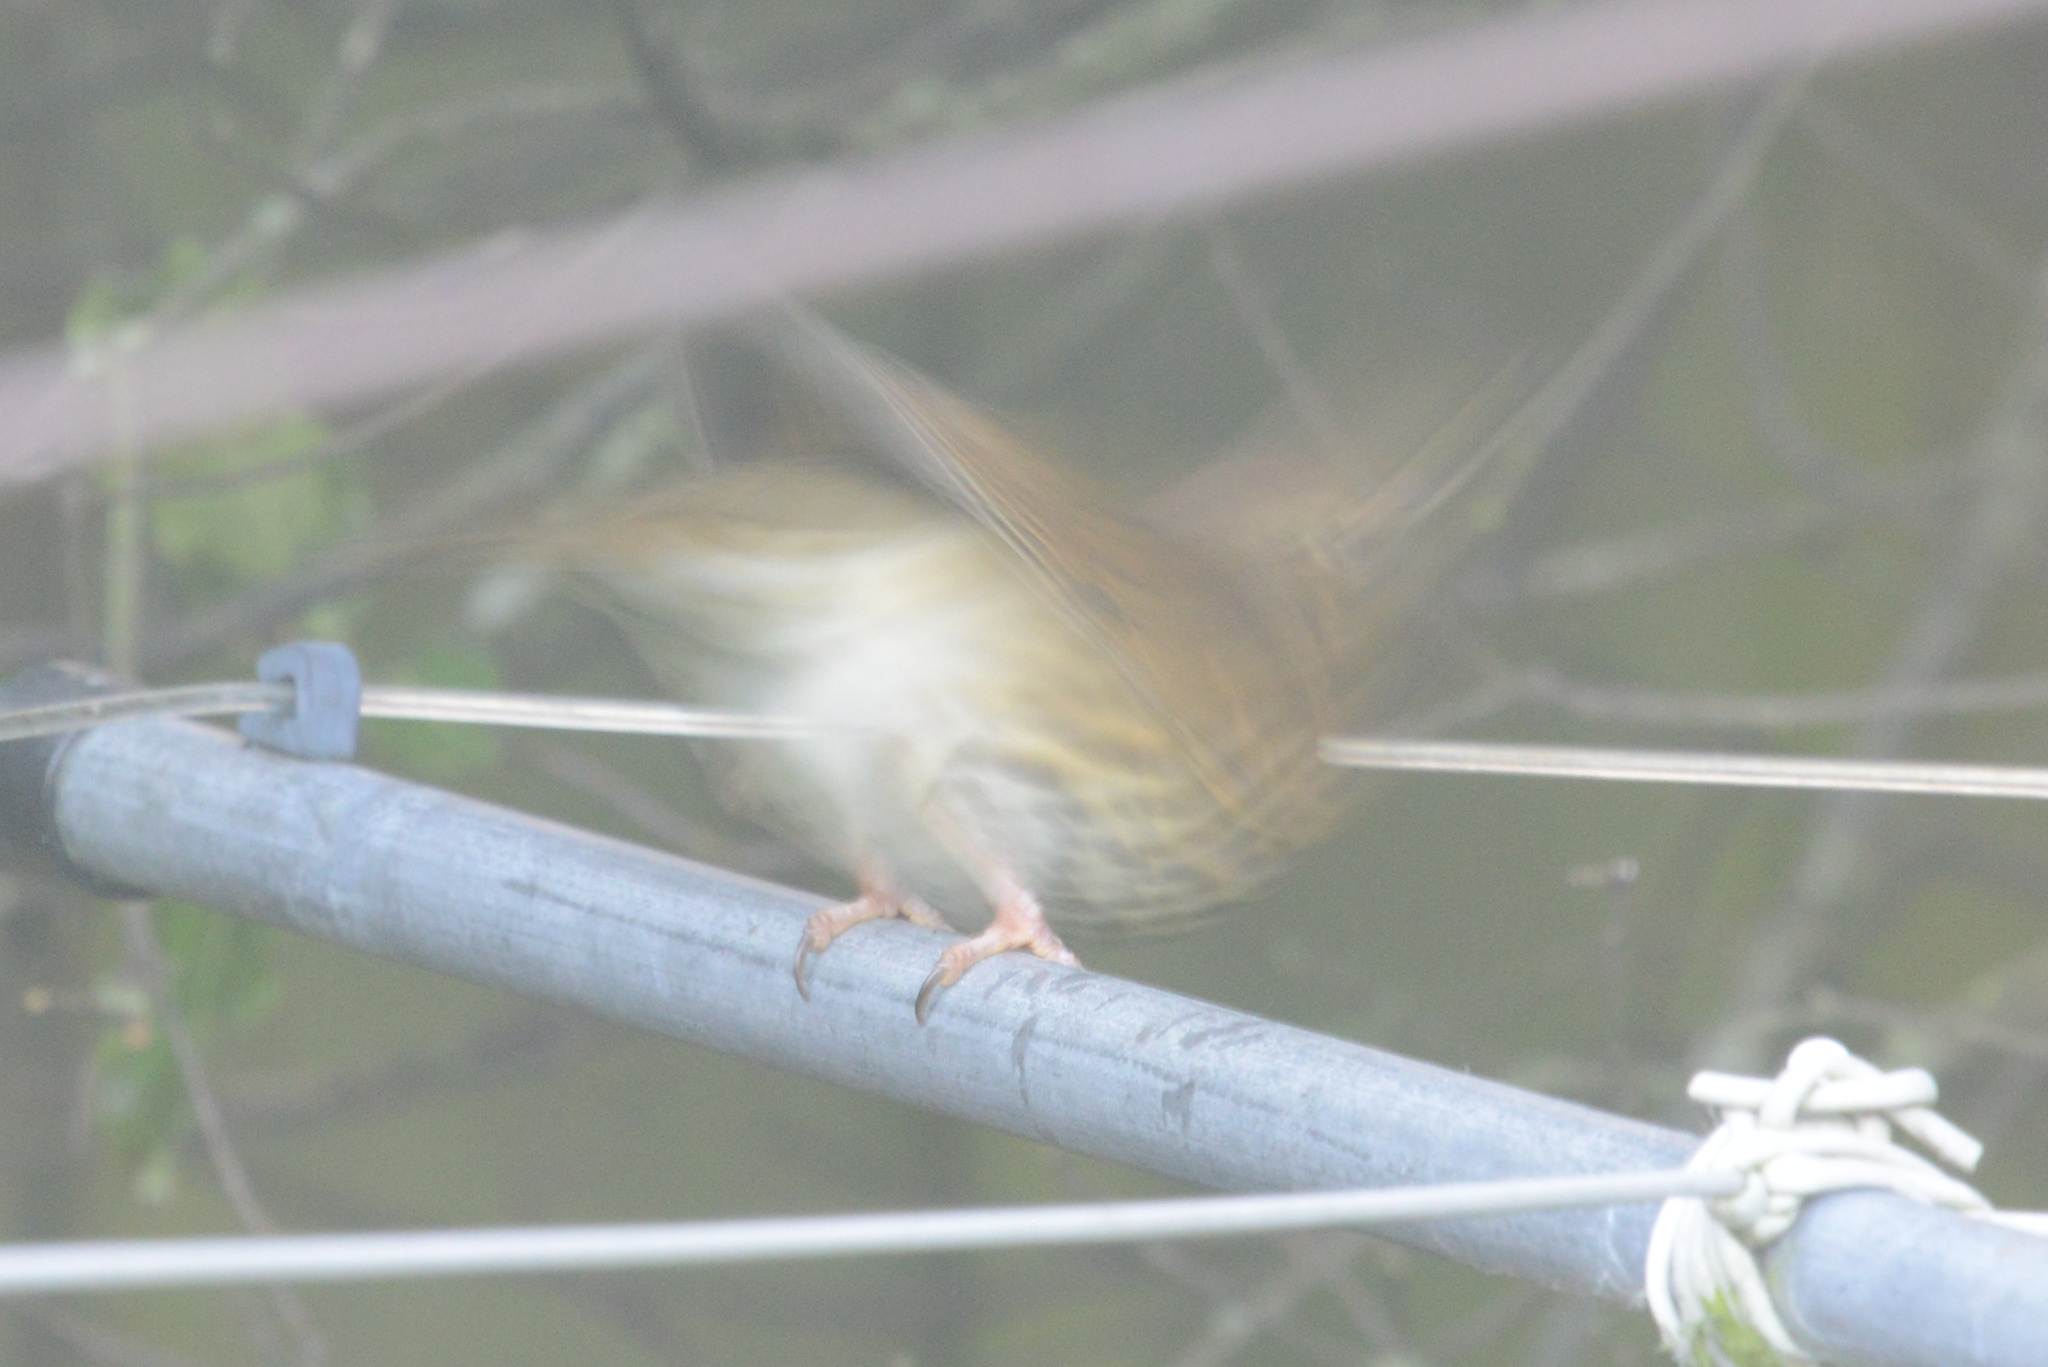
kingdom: Animalia
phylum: Chordata
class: Aves
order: Passeriformes
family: Turdidae
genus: Turdus
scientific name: Turdus philomelos
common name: Song thrush
